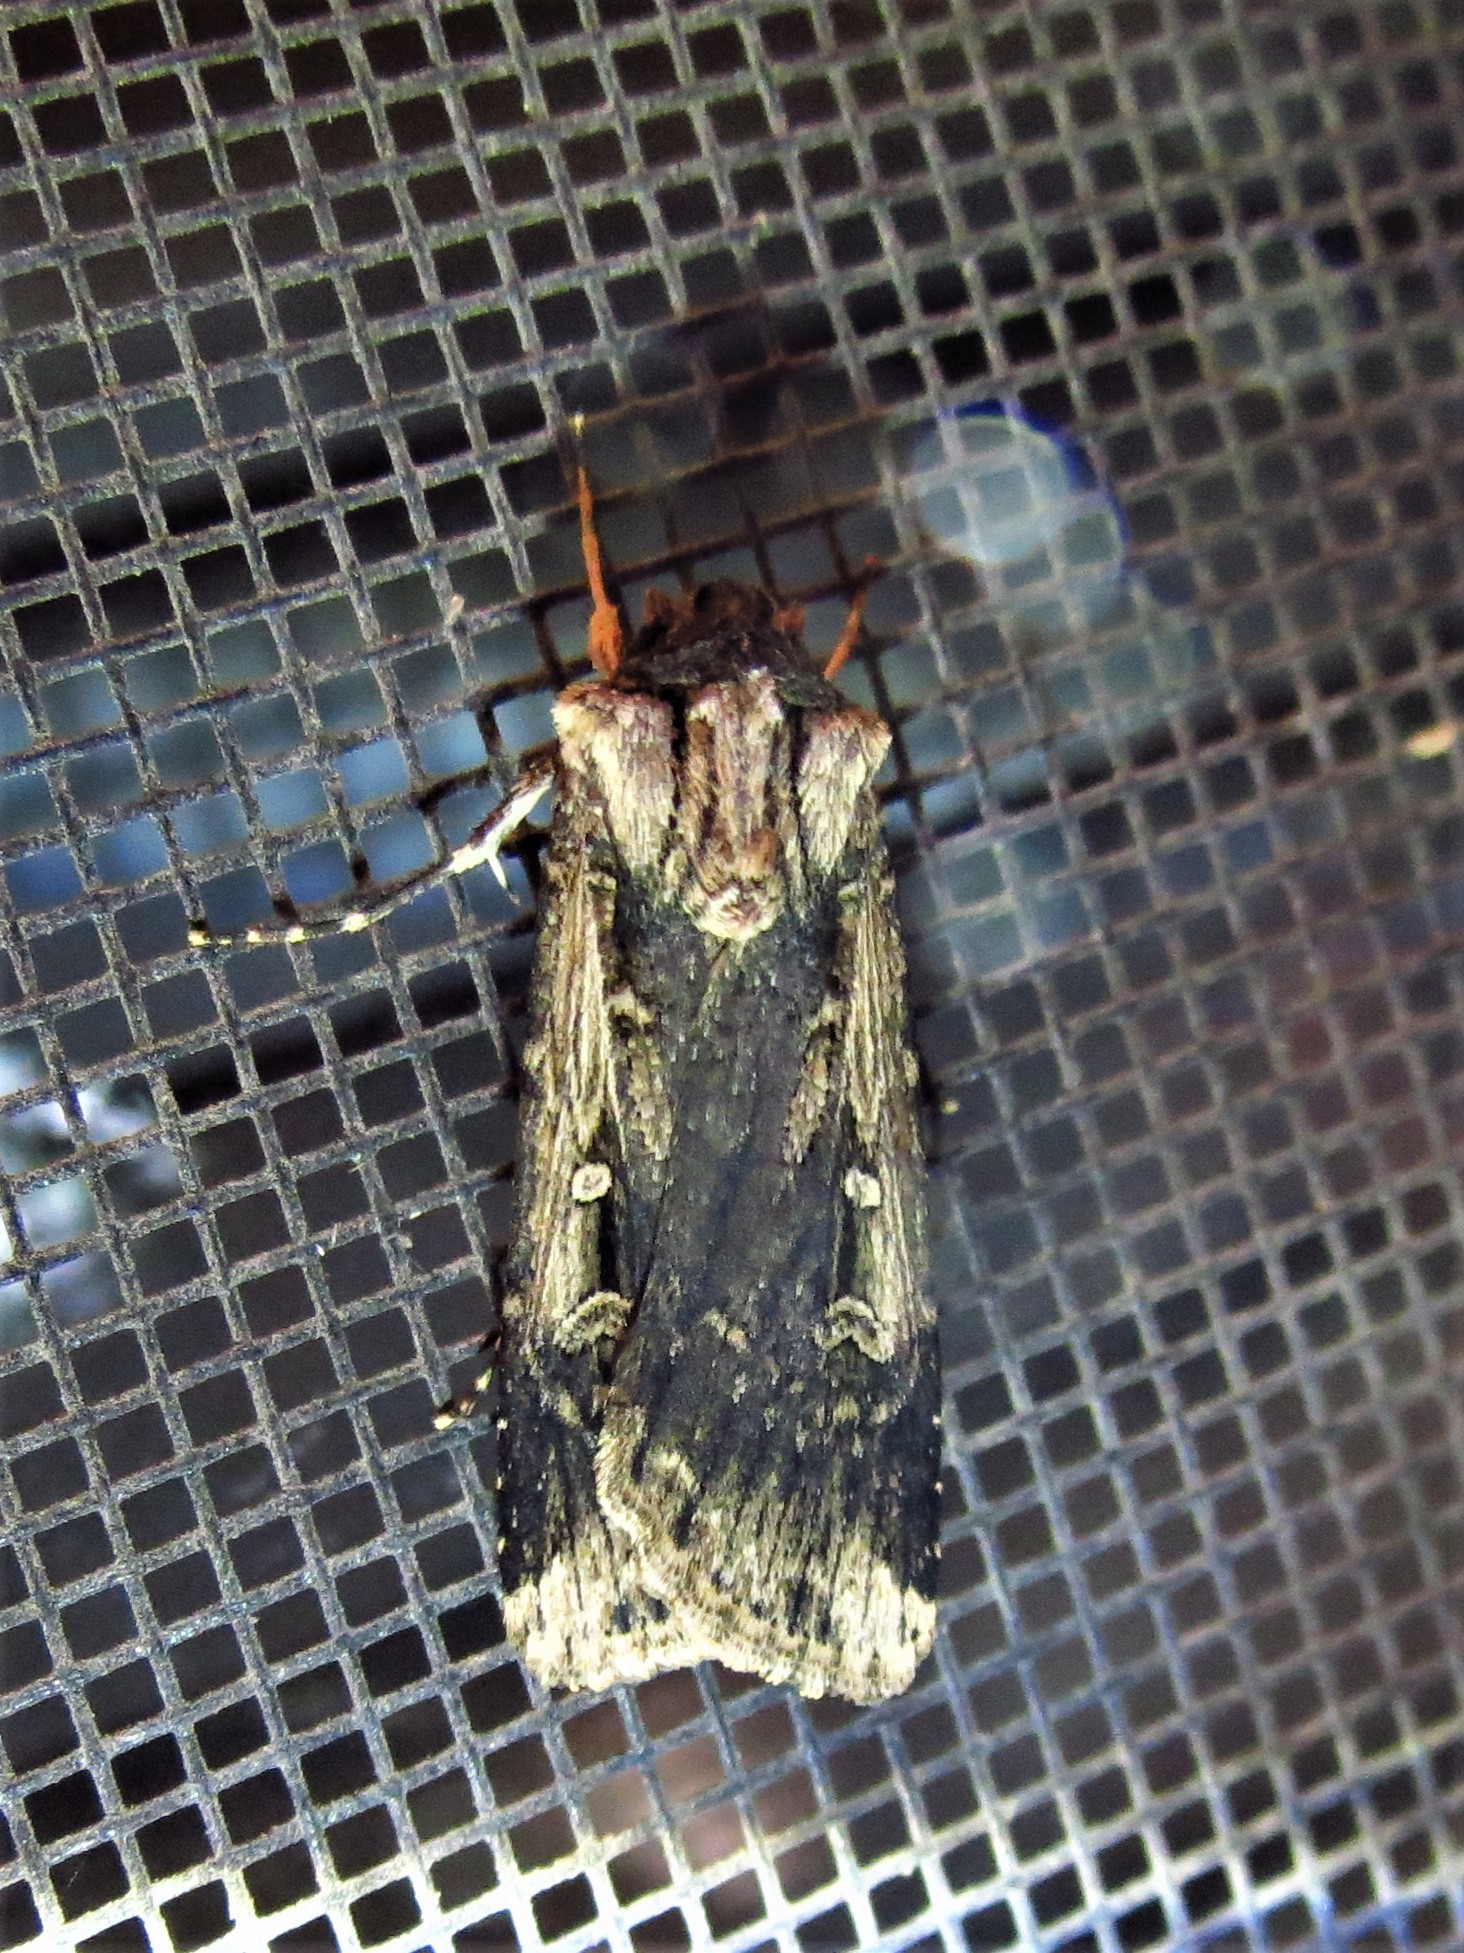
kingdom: Animalia
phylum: Arthropoda
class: Insecta
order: Lepidoptera
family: Noctuidae
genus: Feltia
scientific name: Feltia subterranea
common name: Granulate cutworm
